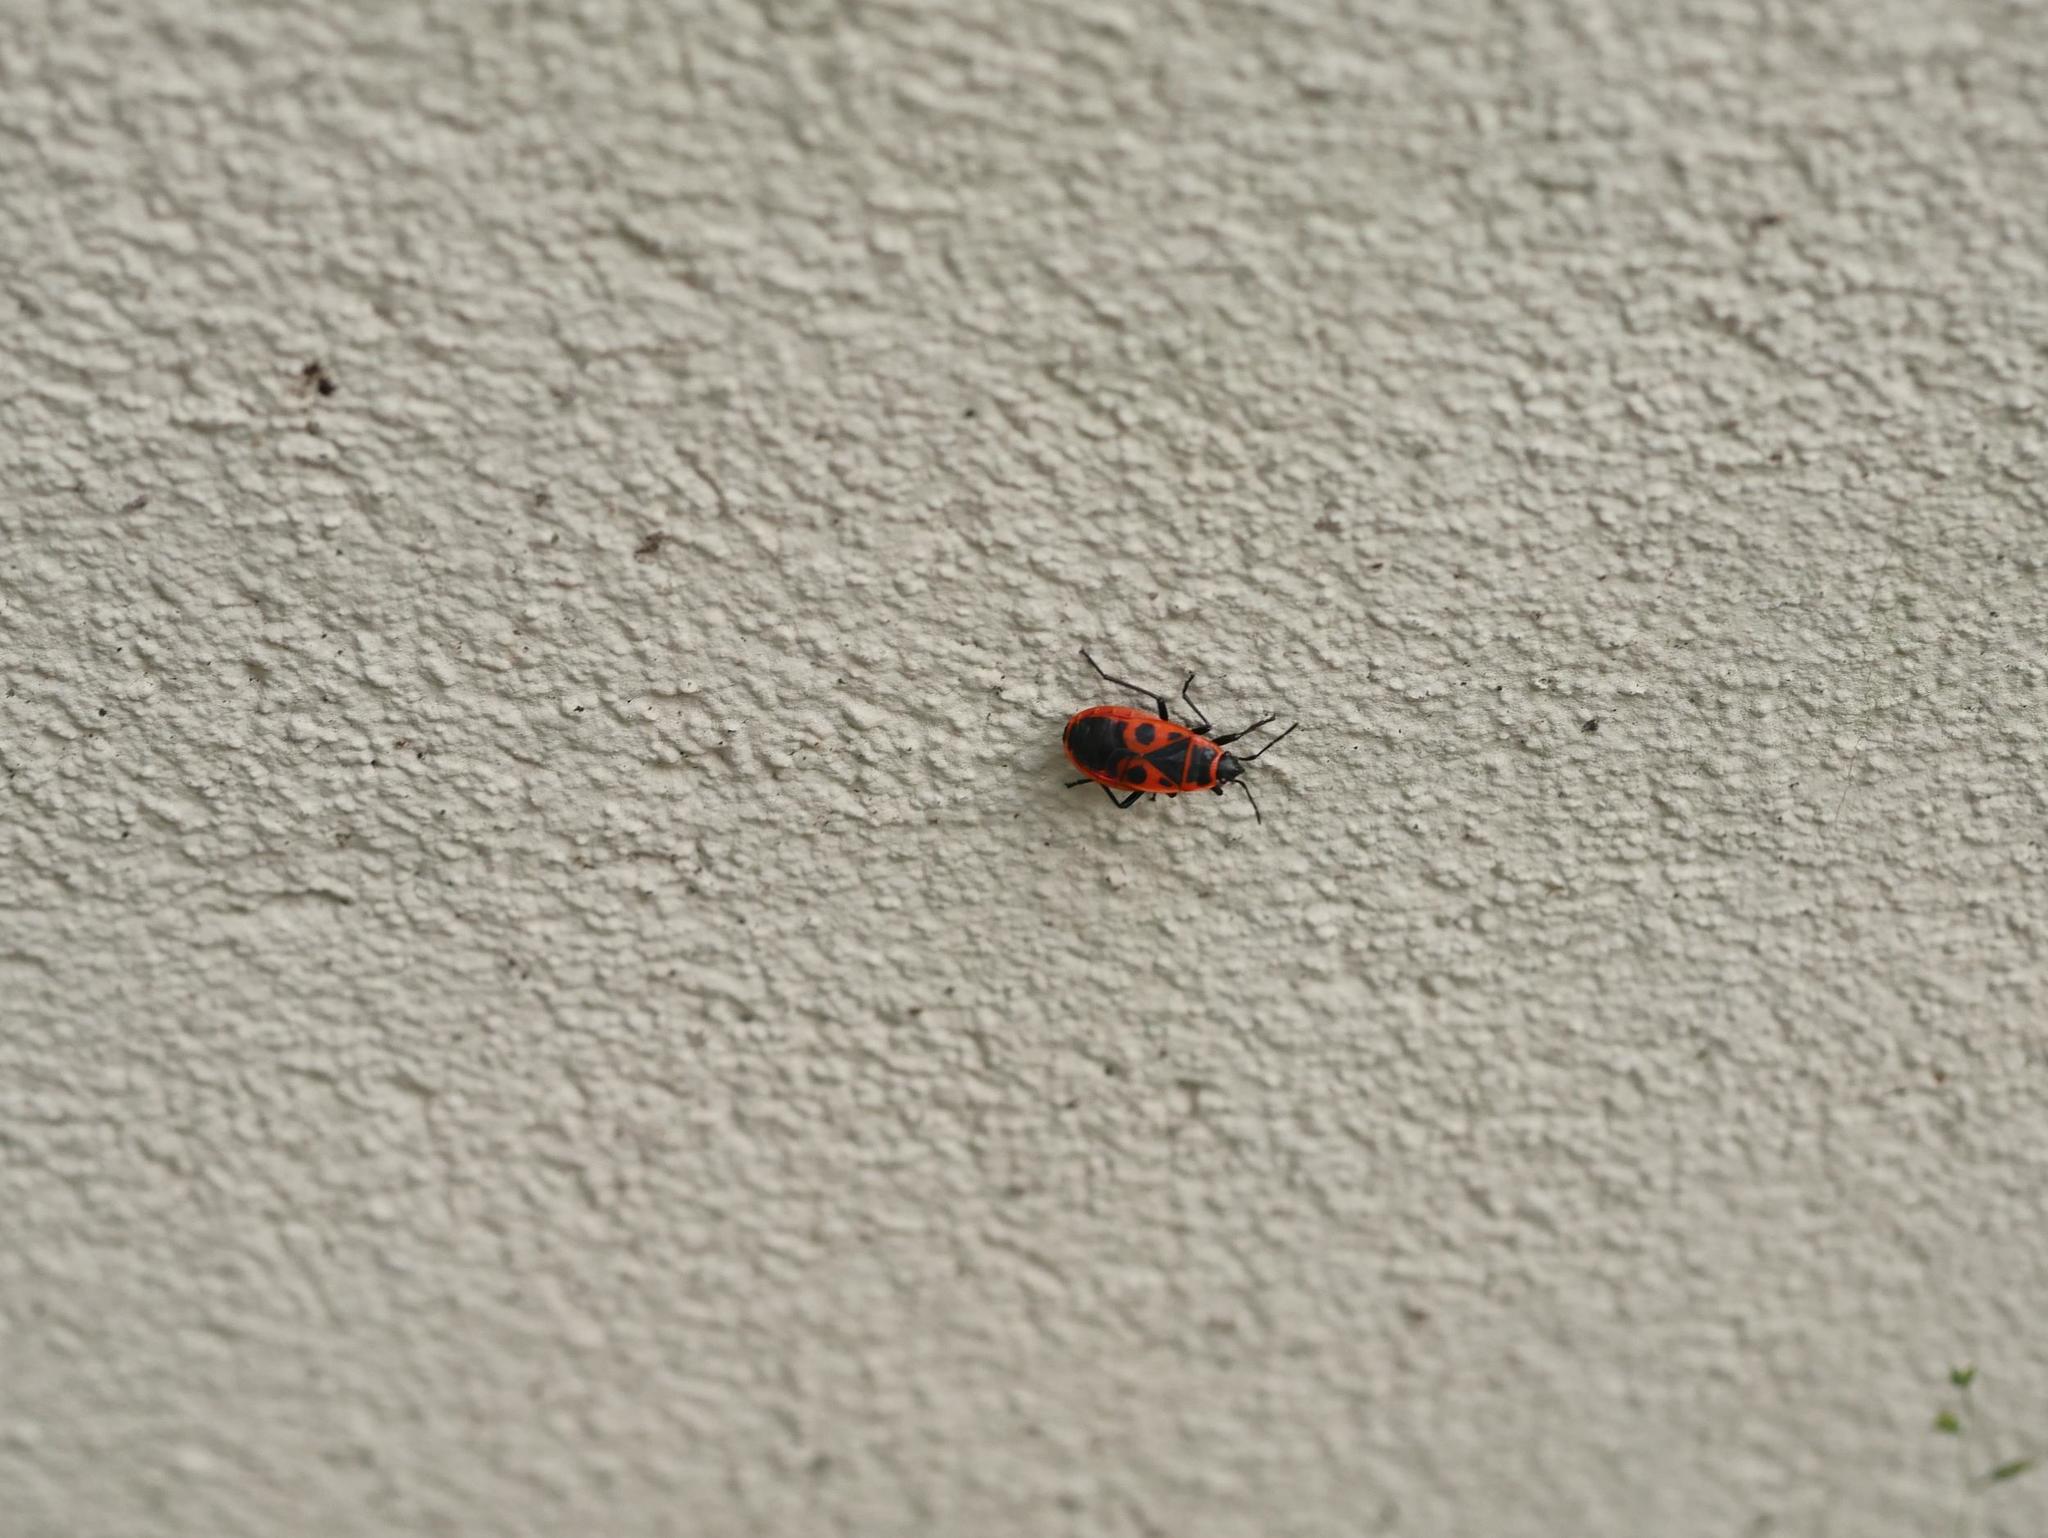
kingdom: Animalia
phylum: Arthropoda
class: Insecta
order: Hemiptera
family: Pyrrhocoridae
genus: Pyrrhocoris
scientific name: Pyrrhocoris apterus
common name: Firebug
